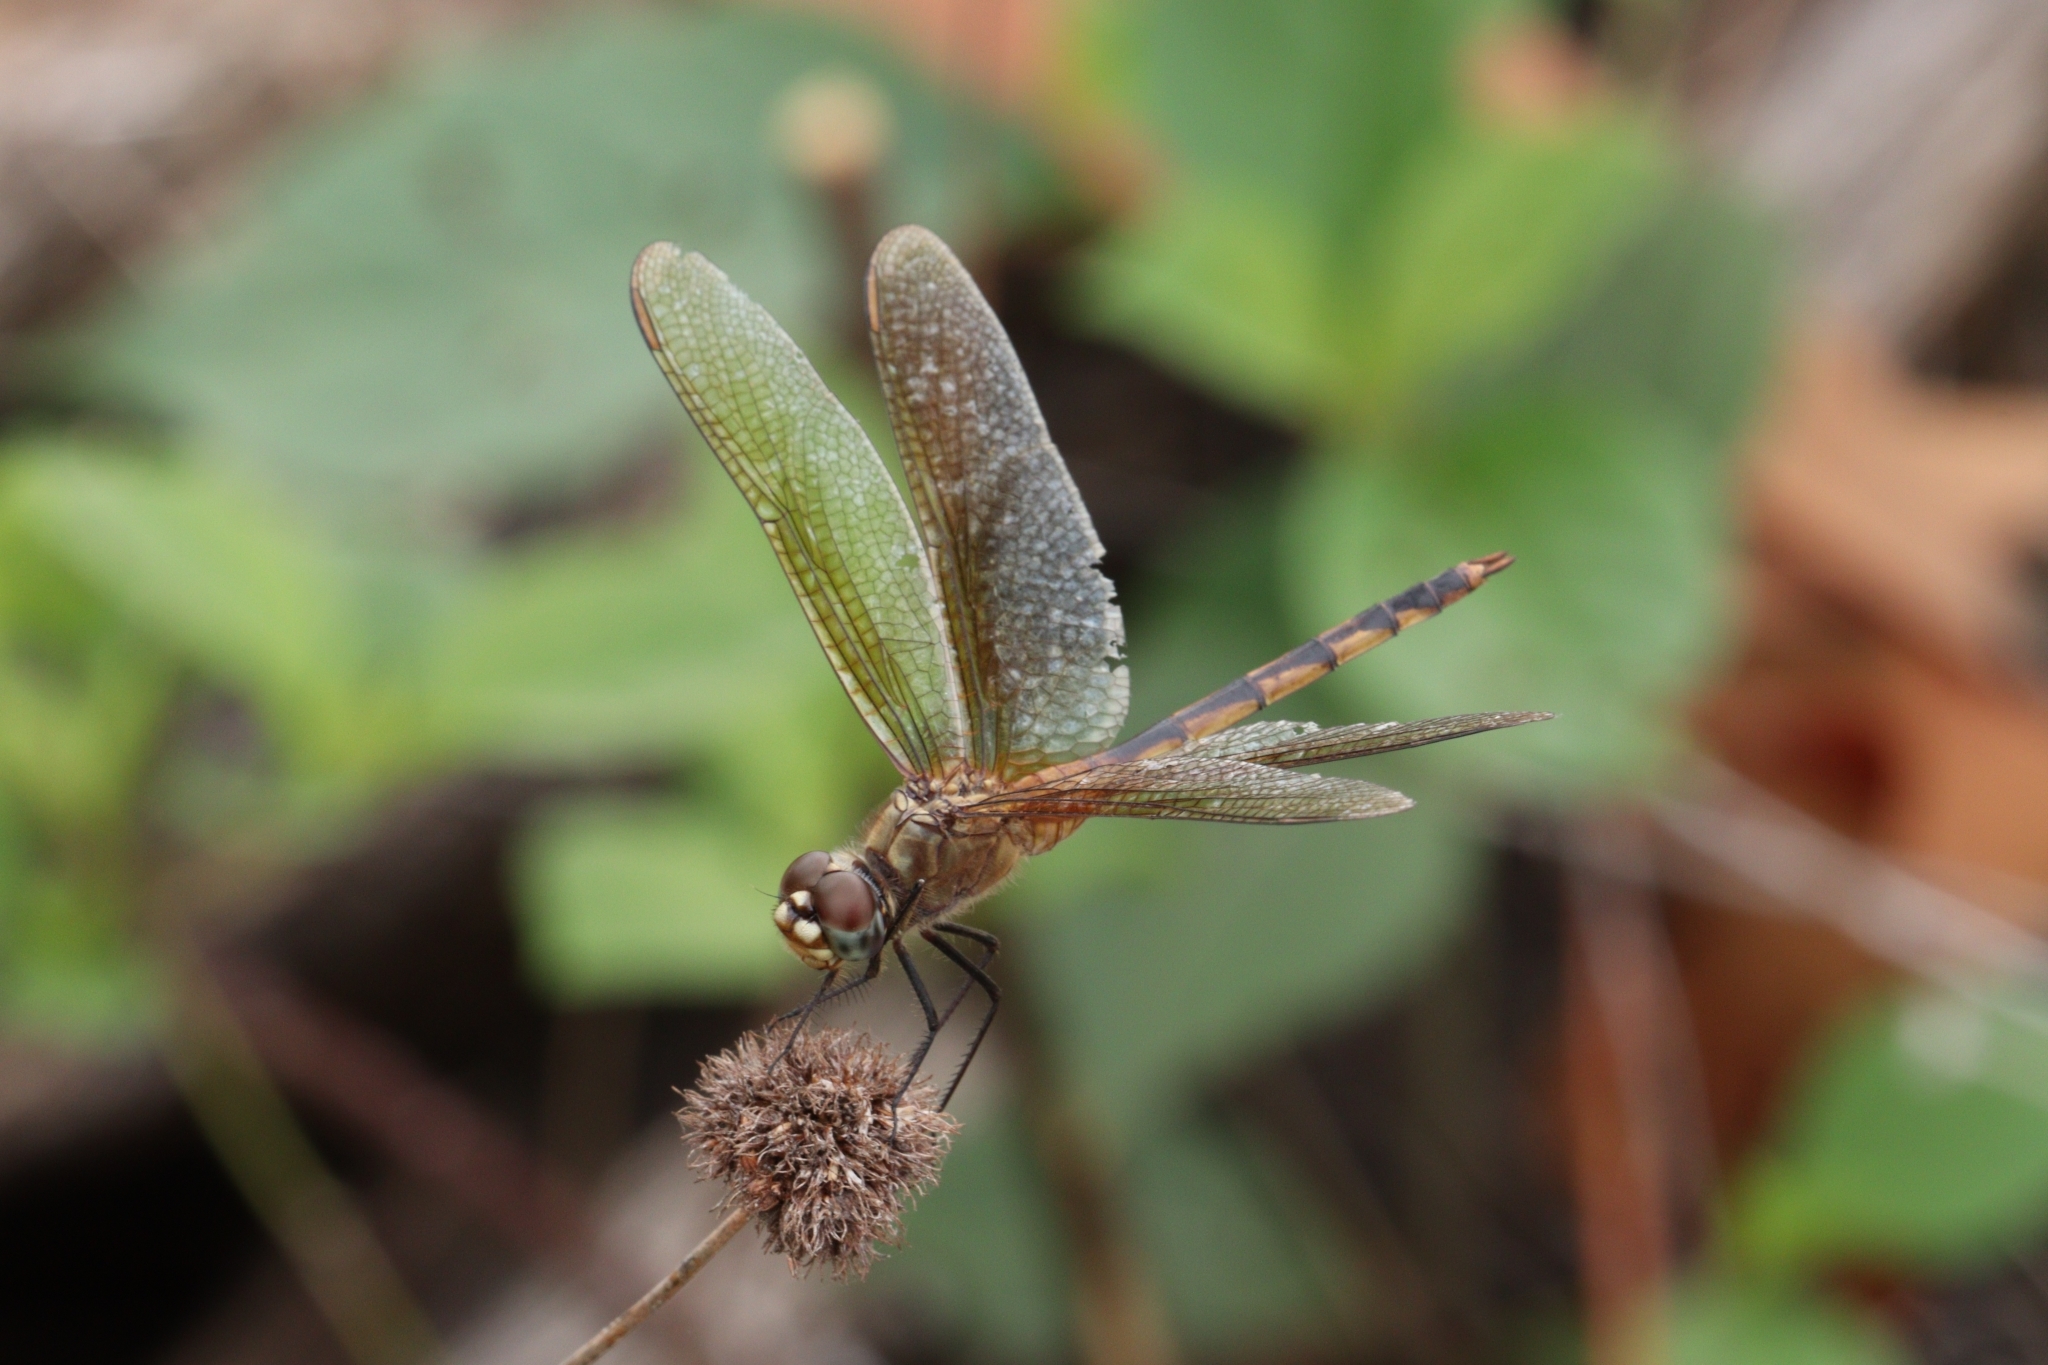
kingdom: Animalia
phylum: Arthropoda
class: Insecta
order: Odonata
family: Libellulidae
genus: Brachymesia
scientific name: Brachymesia herbida
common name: Tawny pennant
